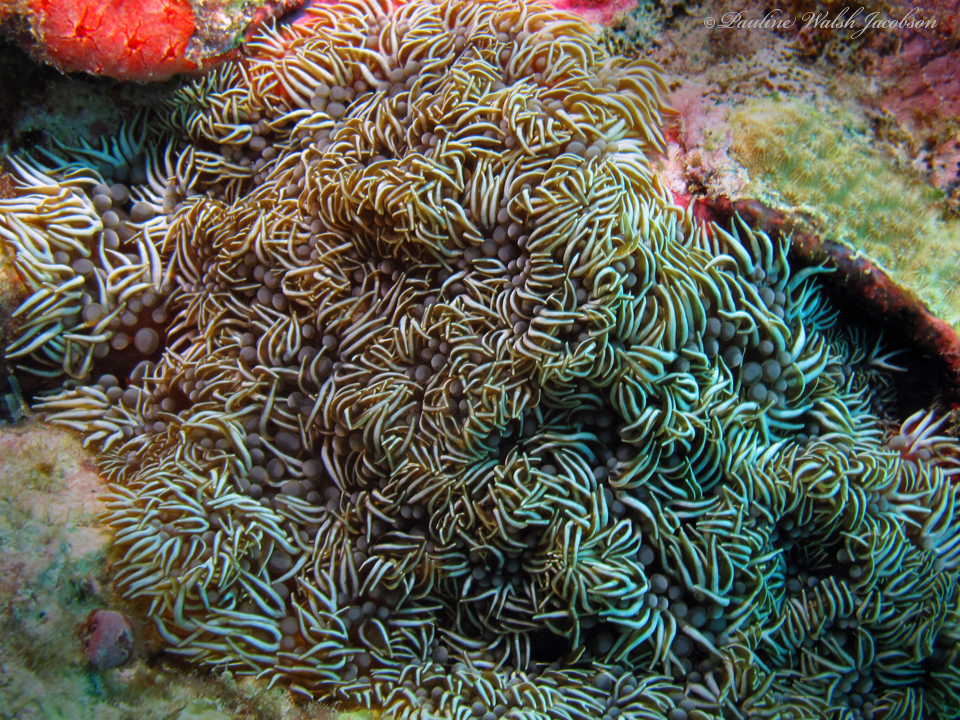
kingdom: Animalia
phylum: Cnidaria
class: Anthozoa
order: Actiniaria
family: Aliciidae
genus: Lebrunia
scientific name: Lebrunia neglecta
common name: Branching anemone
